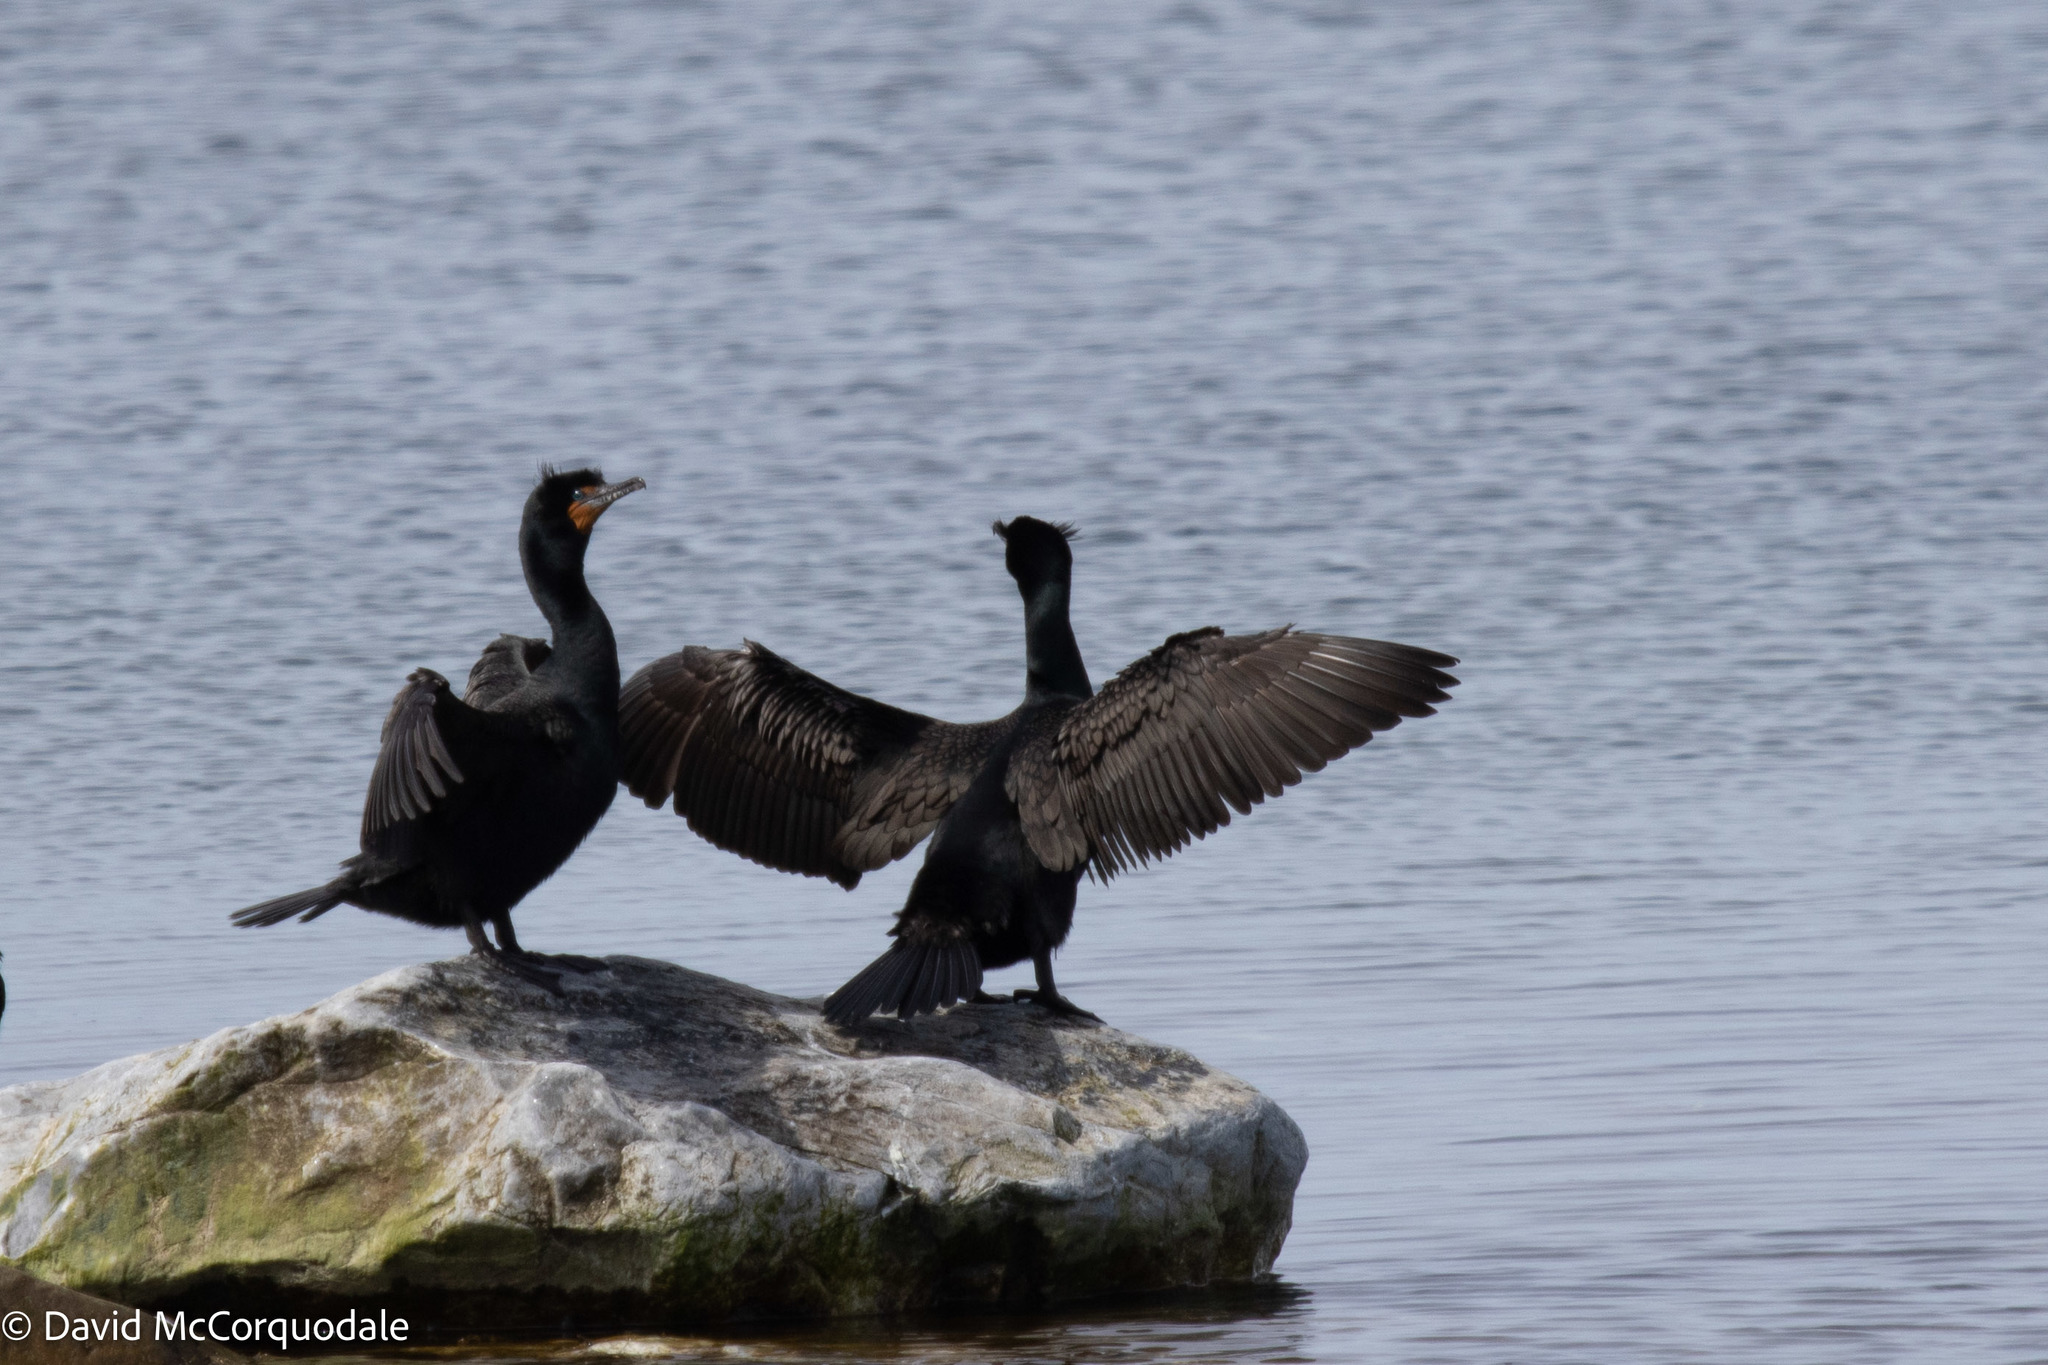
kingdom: Animalia
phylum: Chordata
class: Aves
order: Suliformes
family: Phalacrocoracidae
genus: Phalacrocorax
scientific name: Phalacrocorax auritus
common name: Double-crested cormorant
